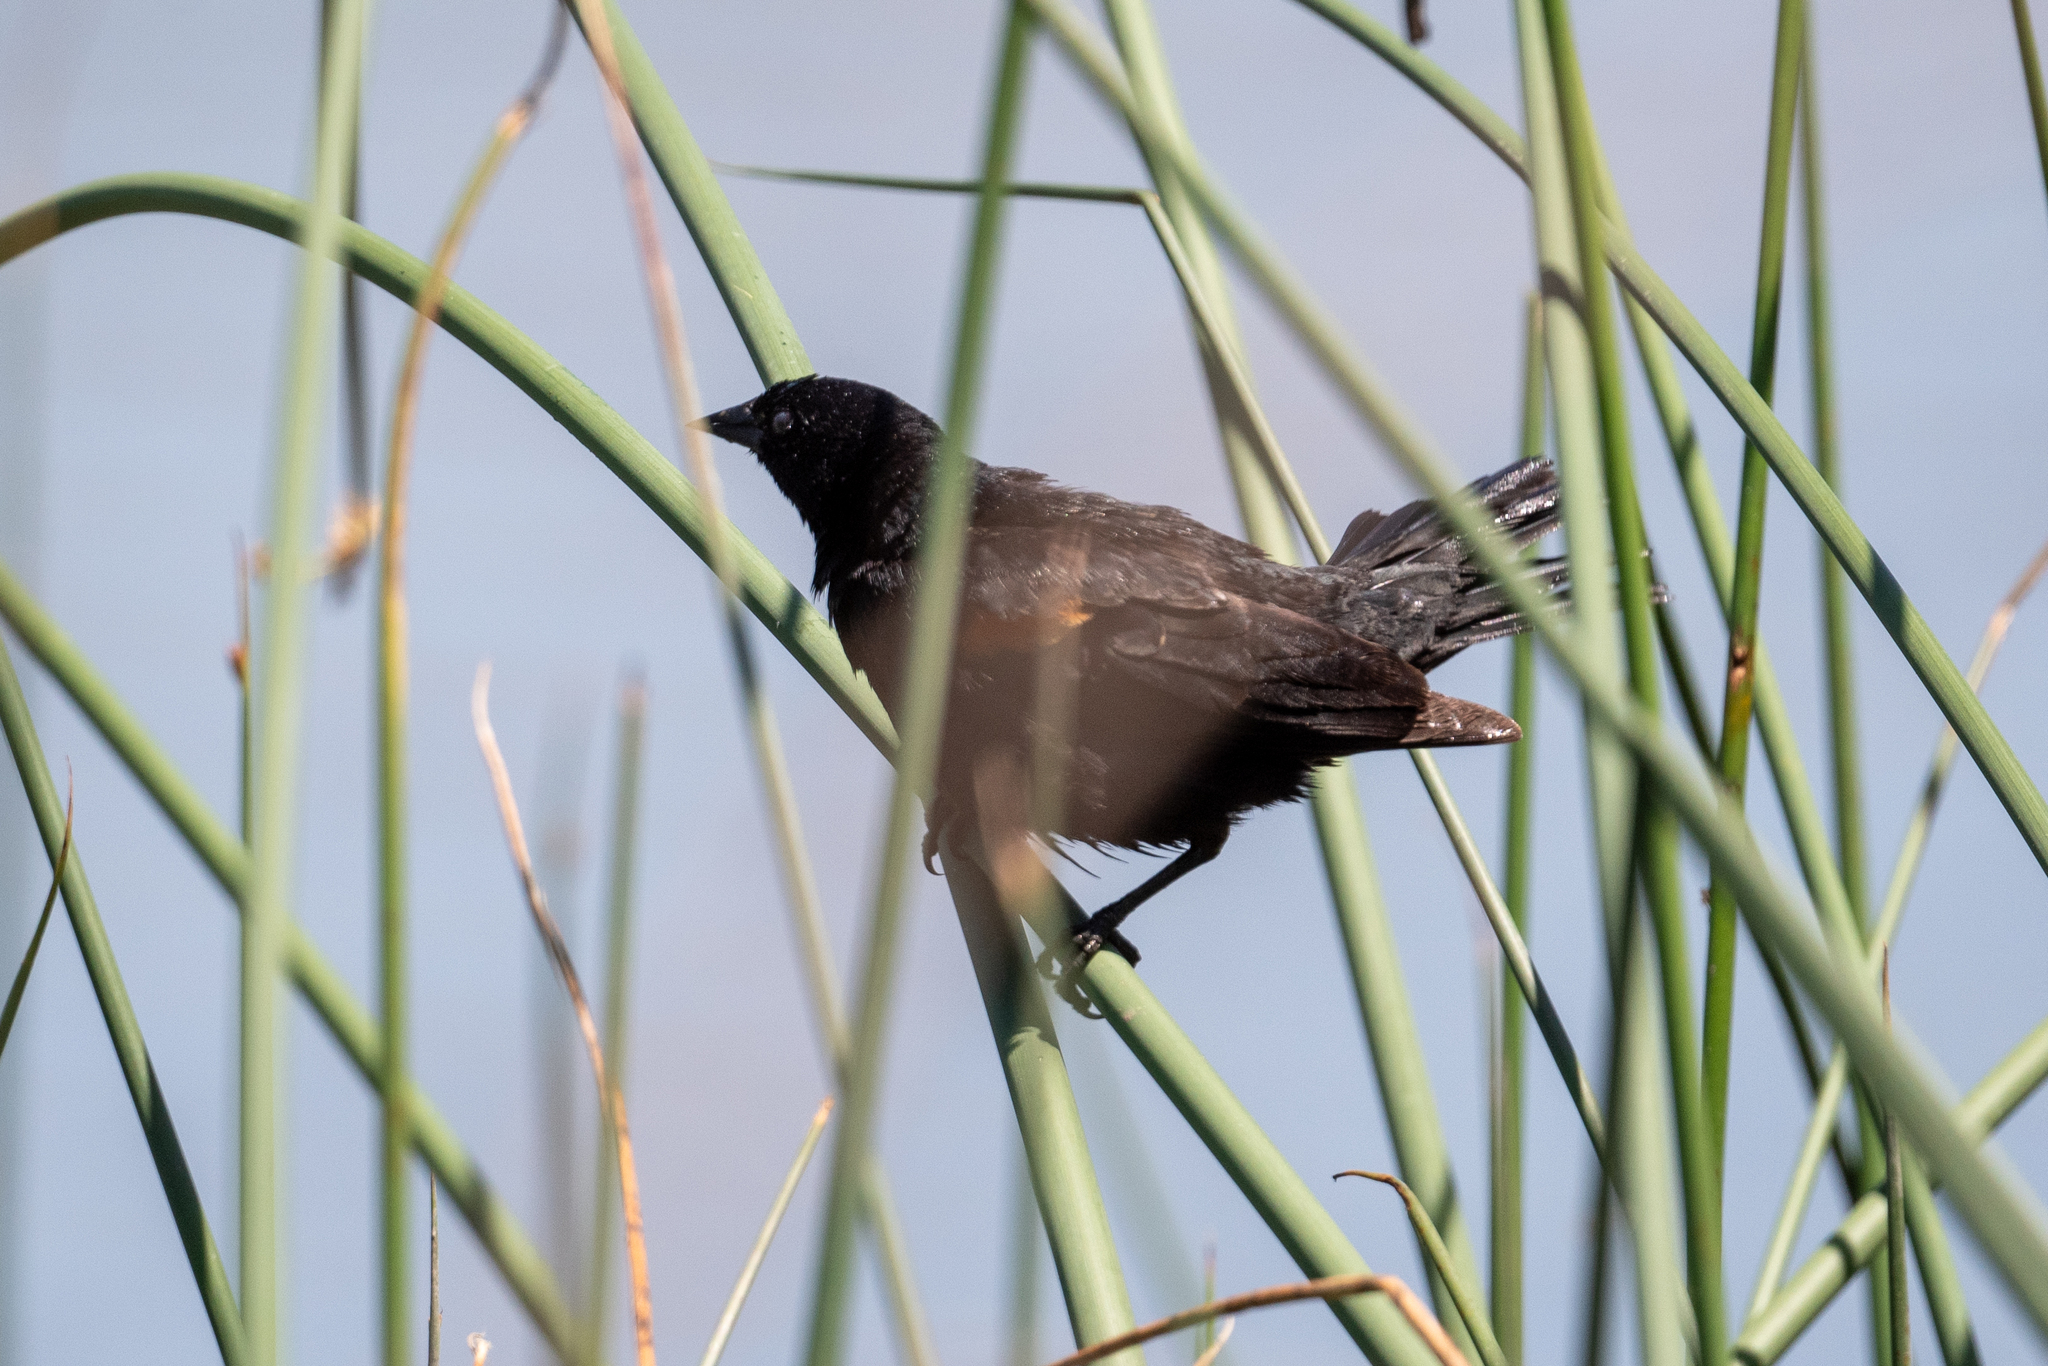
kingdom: Animalia
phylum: Chordata
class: Aves
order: Passeriformes
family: Icteridae
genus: Agelaius
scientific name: Agelaius phoeniceus
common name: Red-winged blackbird
